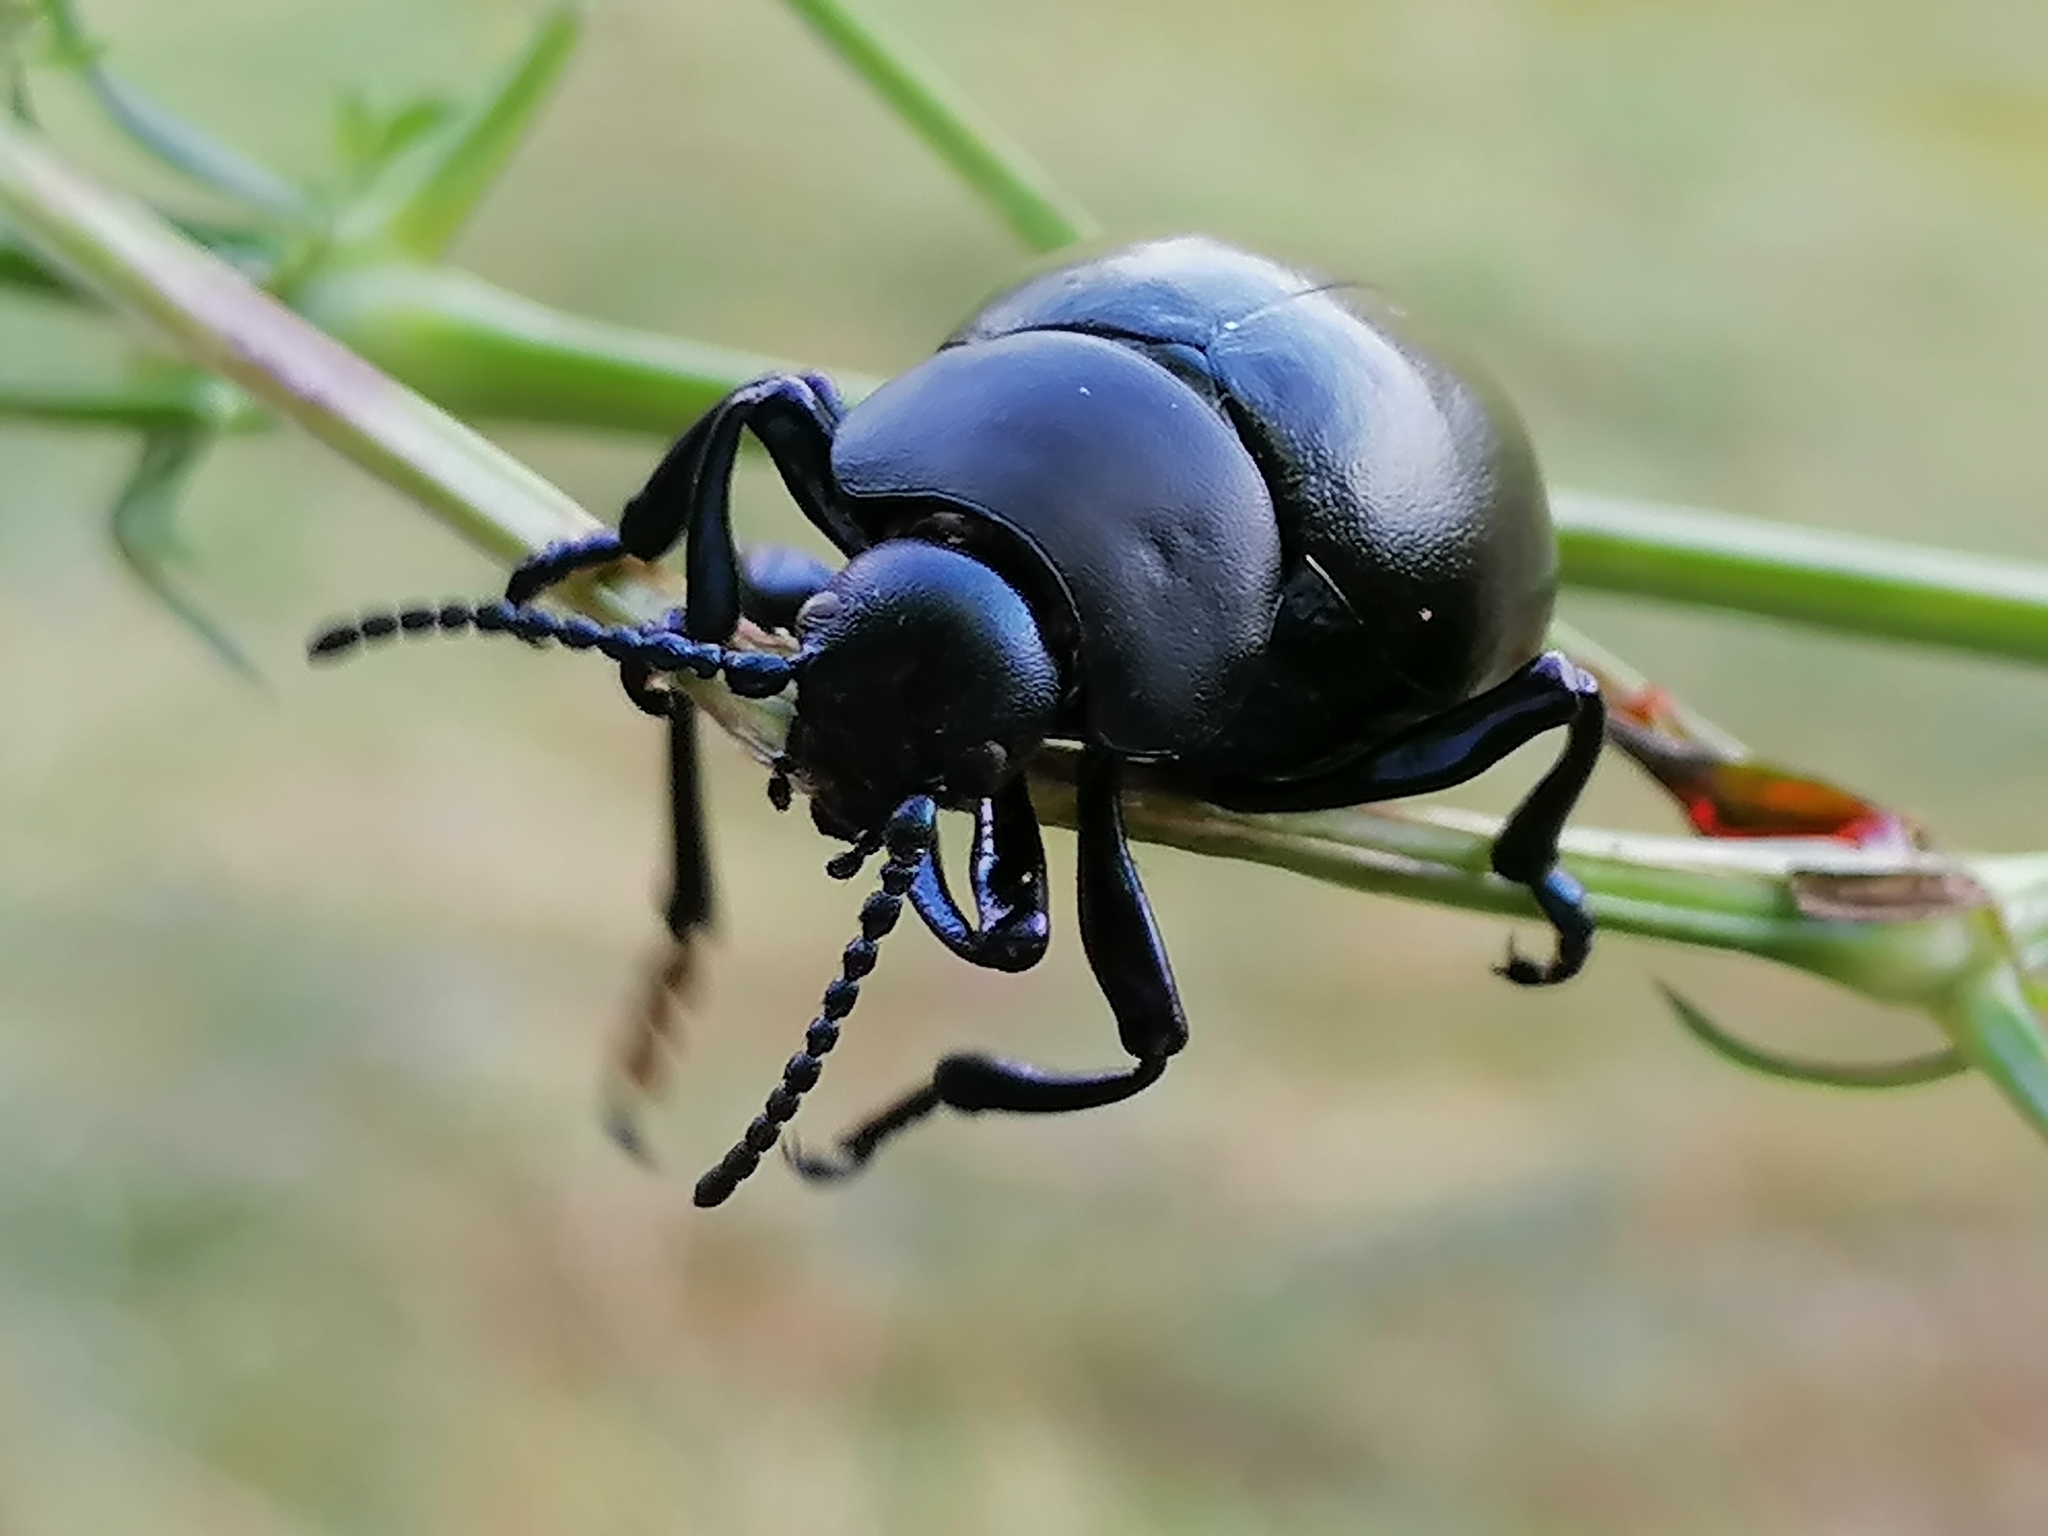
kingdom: Animalia
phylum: Arthropoda
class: Insecta
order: Coleoptera
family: Chrysomelidae
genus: Timarcha
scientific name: Timarcha tenebricosa
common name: Bloody-nosed beetle
